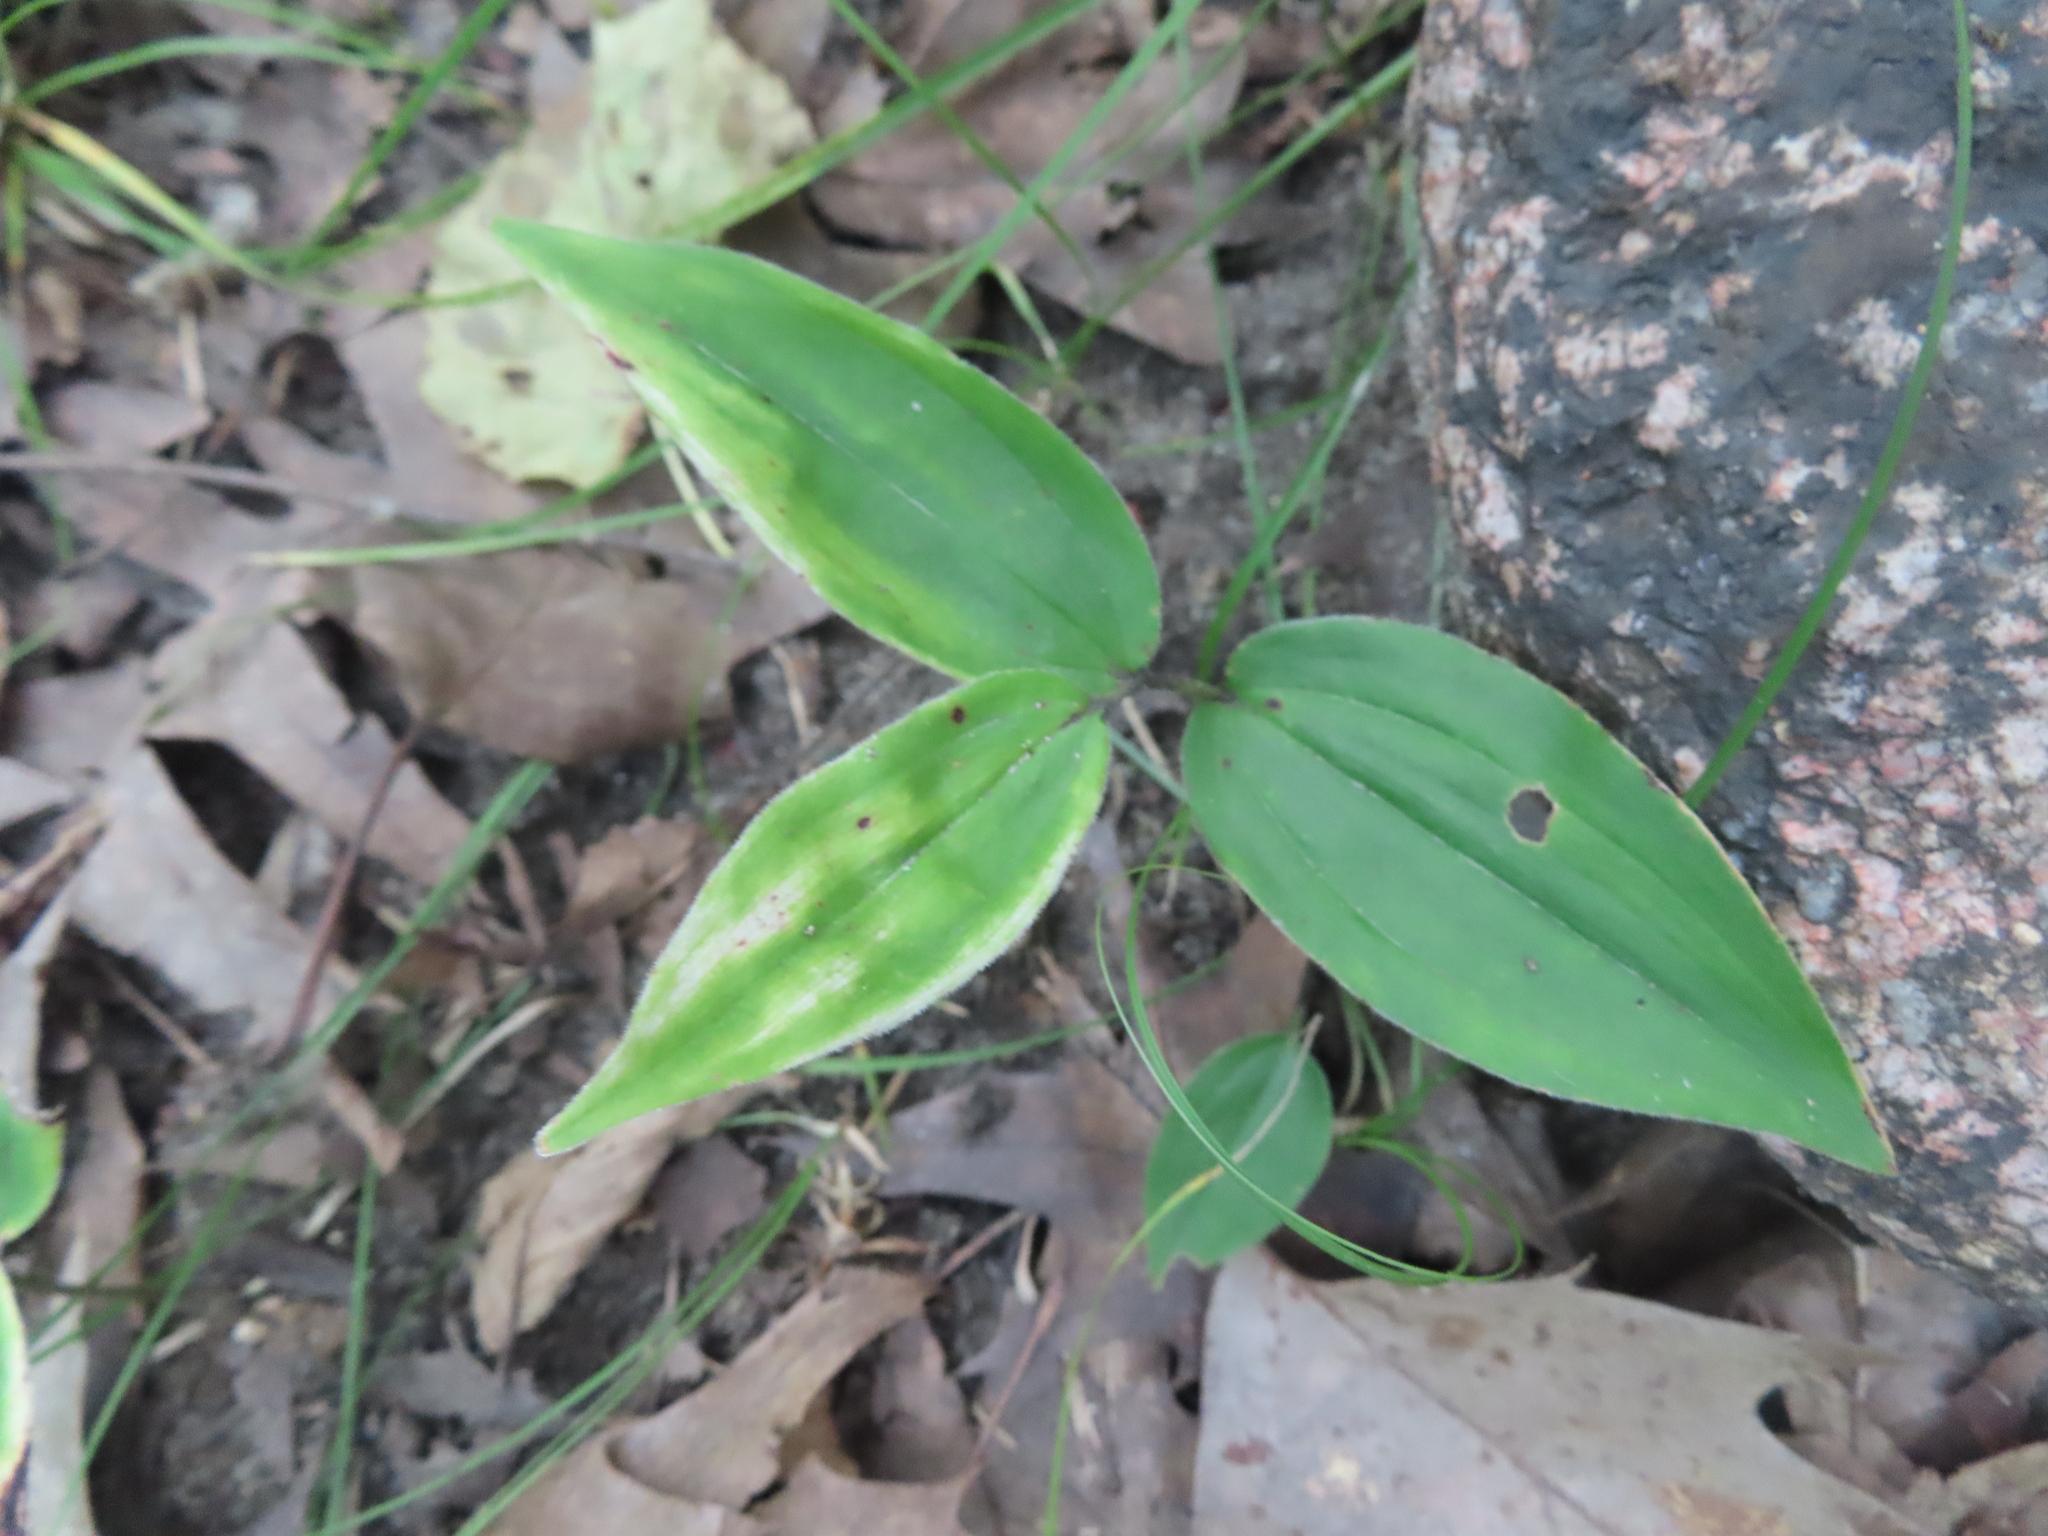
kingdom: Plantae
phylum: Tracheophyta
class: Liliopsida
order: Asparagales
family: Asparagaceae
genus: Maianthemum
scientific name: Maianthemum racemosum
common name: False spikenard
